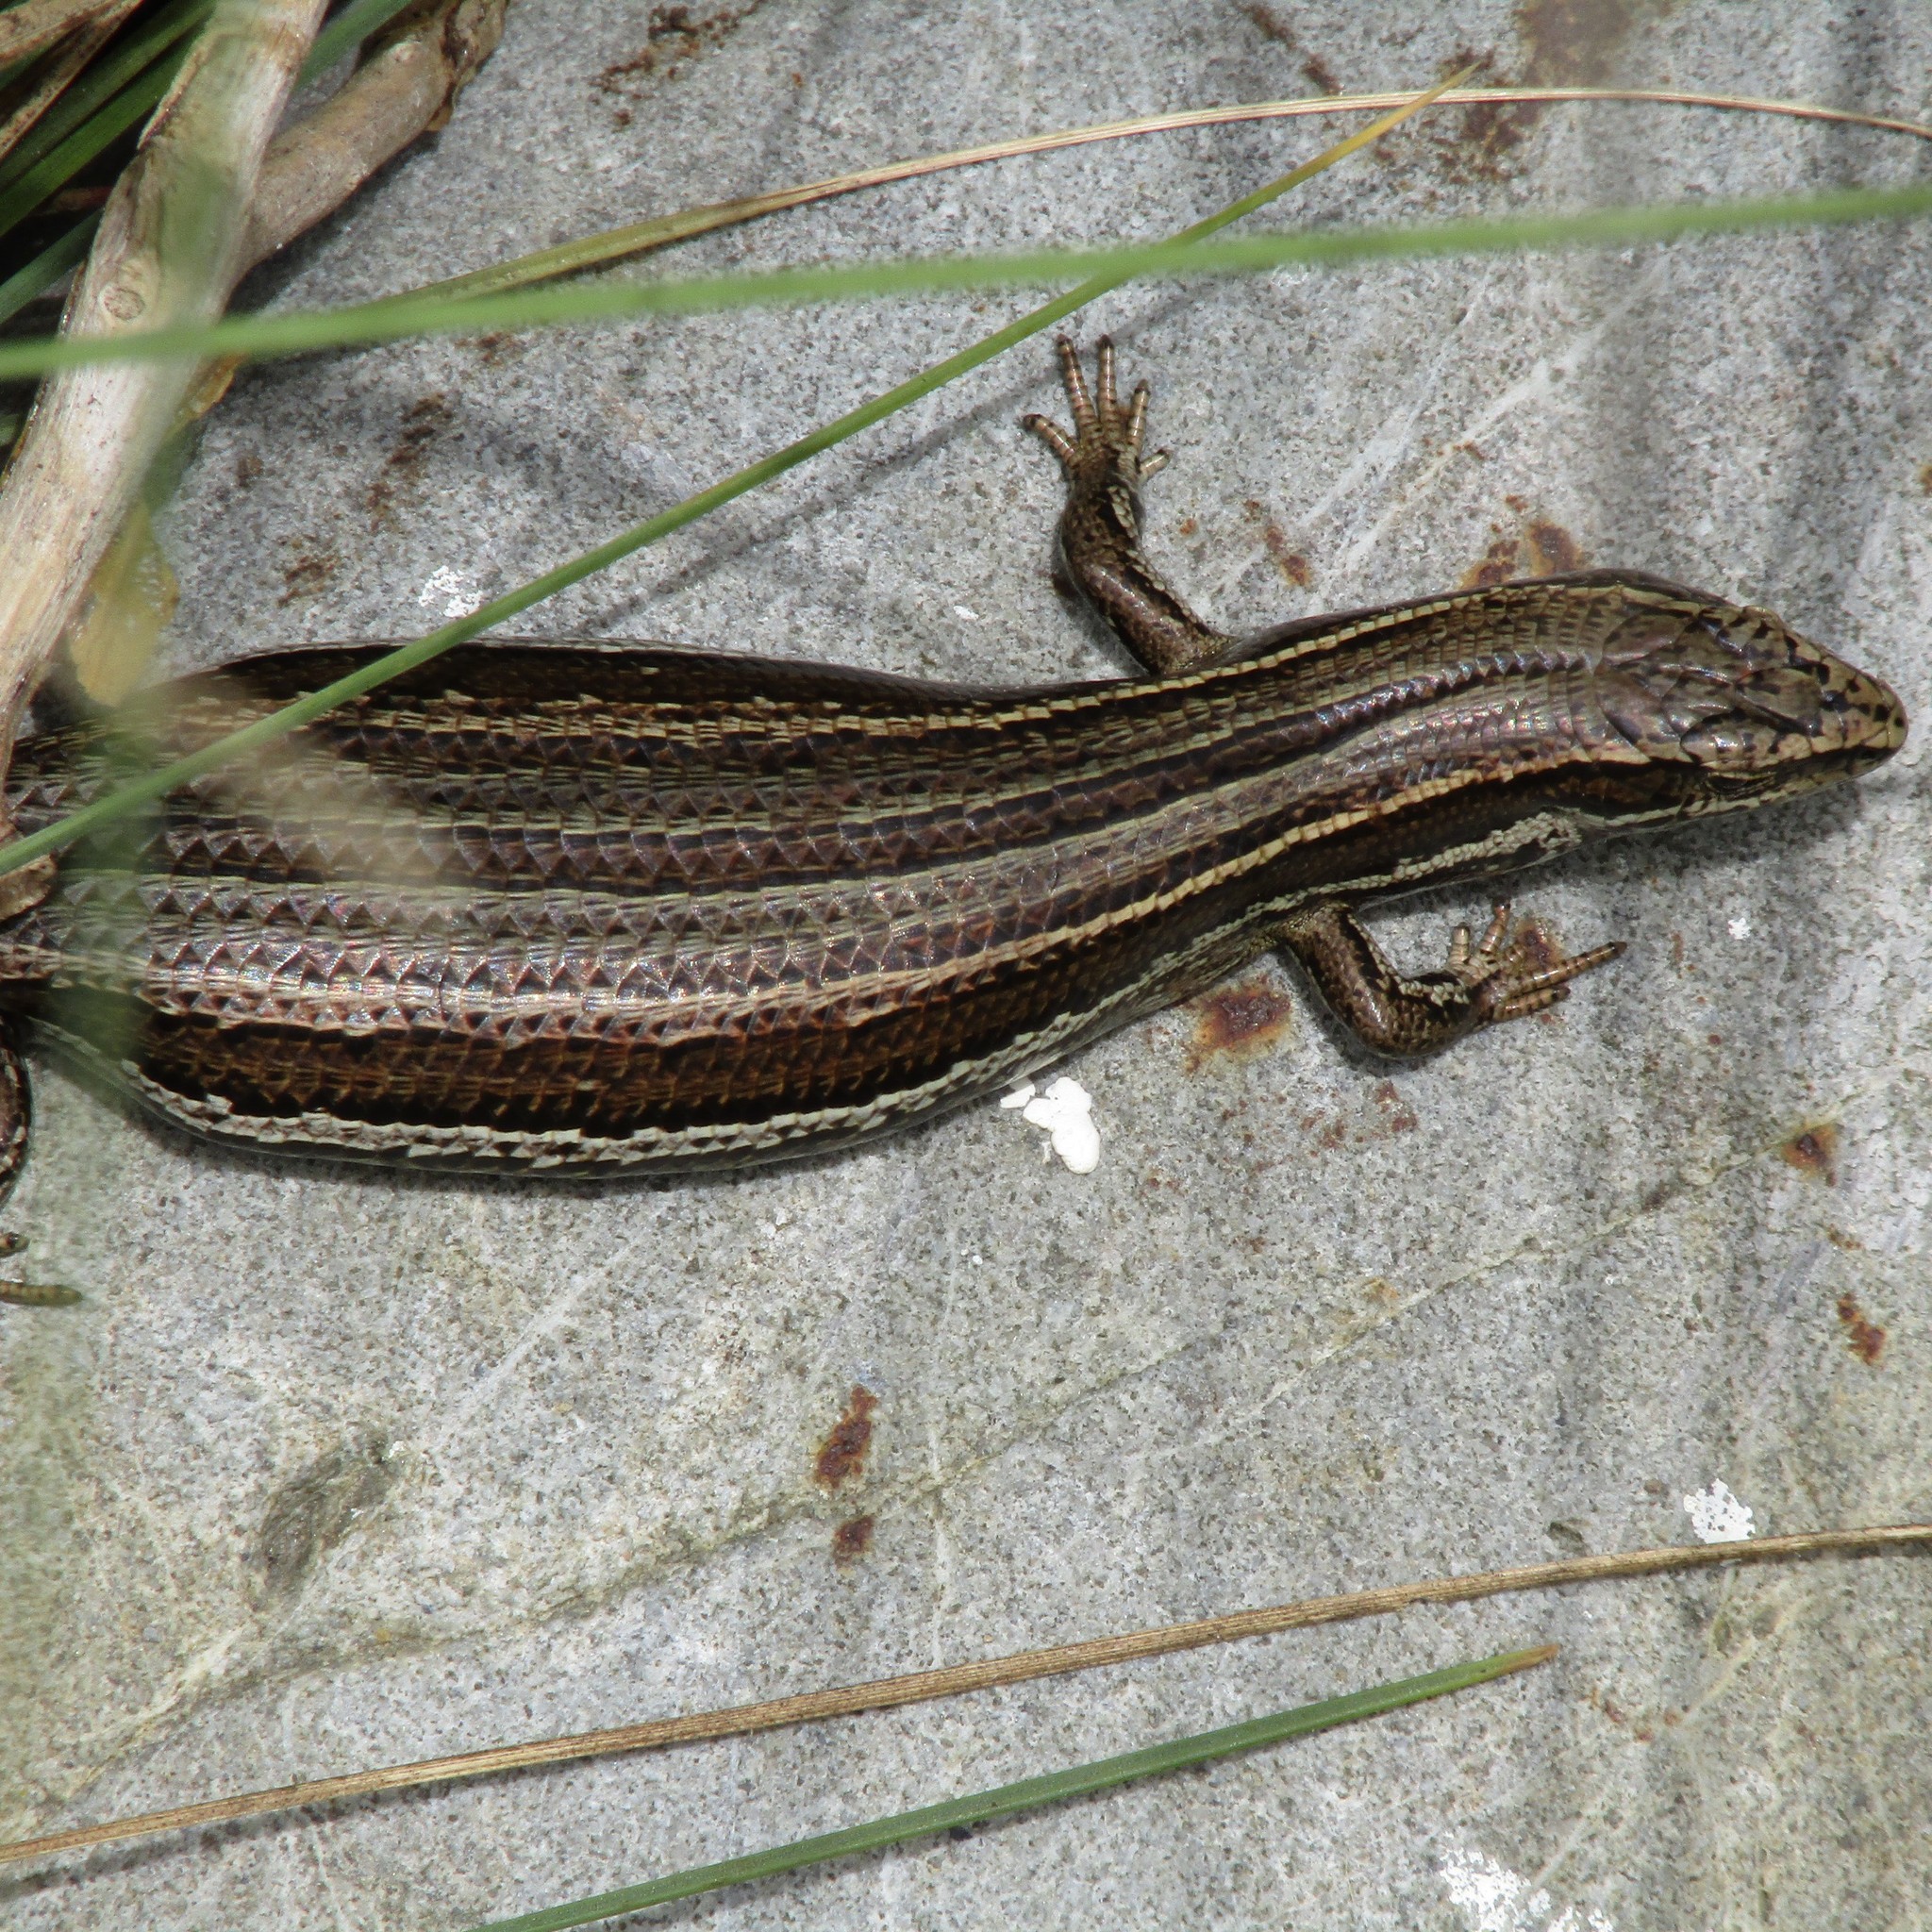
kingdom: Animalia
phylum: Chordata
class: Squamata
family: Scincidae
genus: Oligosoma
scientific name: Oligosoma polychroma
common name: Common new zealand skink
